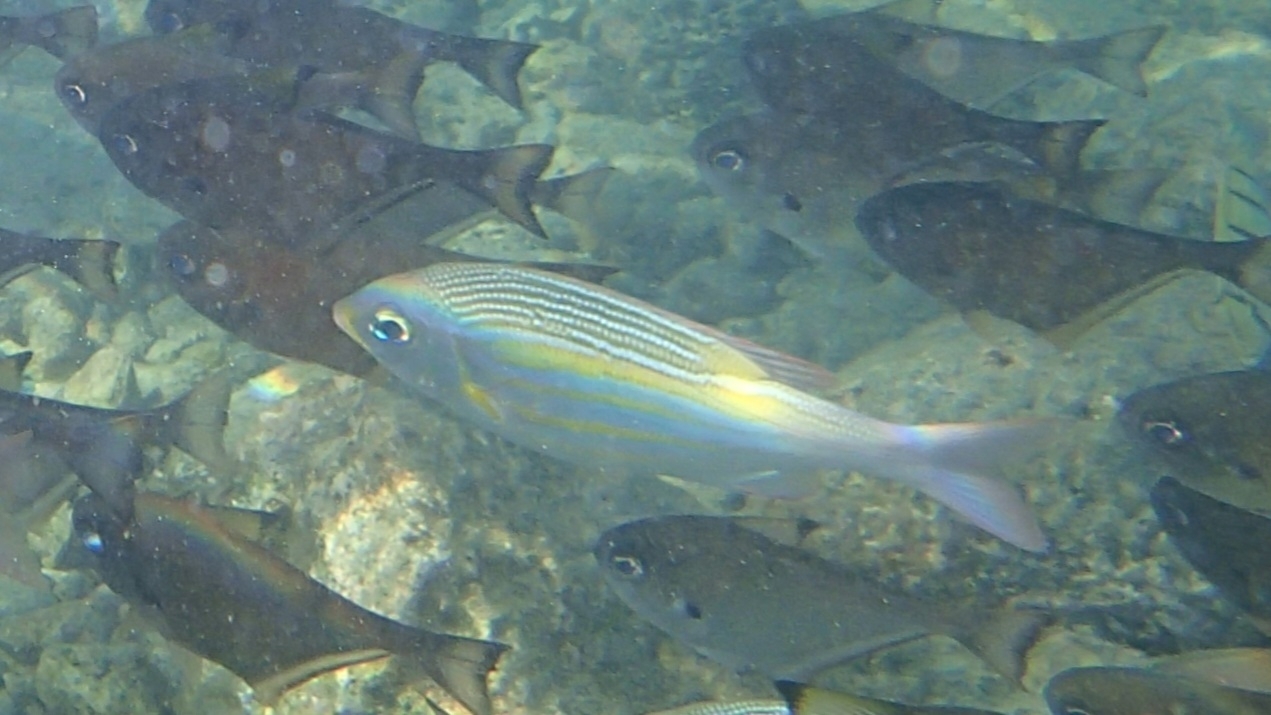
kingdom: Animalia
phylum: Chordata
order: Perciformes
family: Lethrinidae
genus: Gnathodentex
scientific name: Gnathodentex aureolineatus
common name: Gold-lined sea bream
